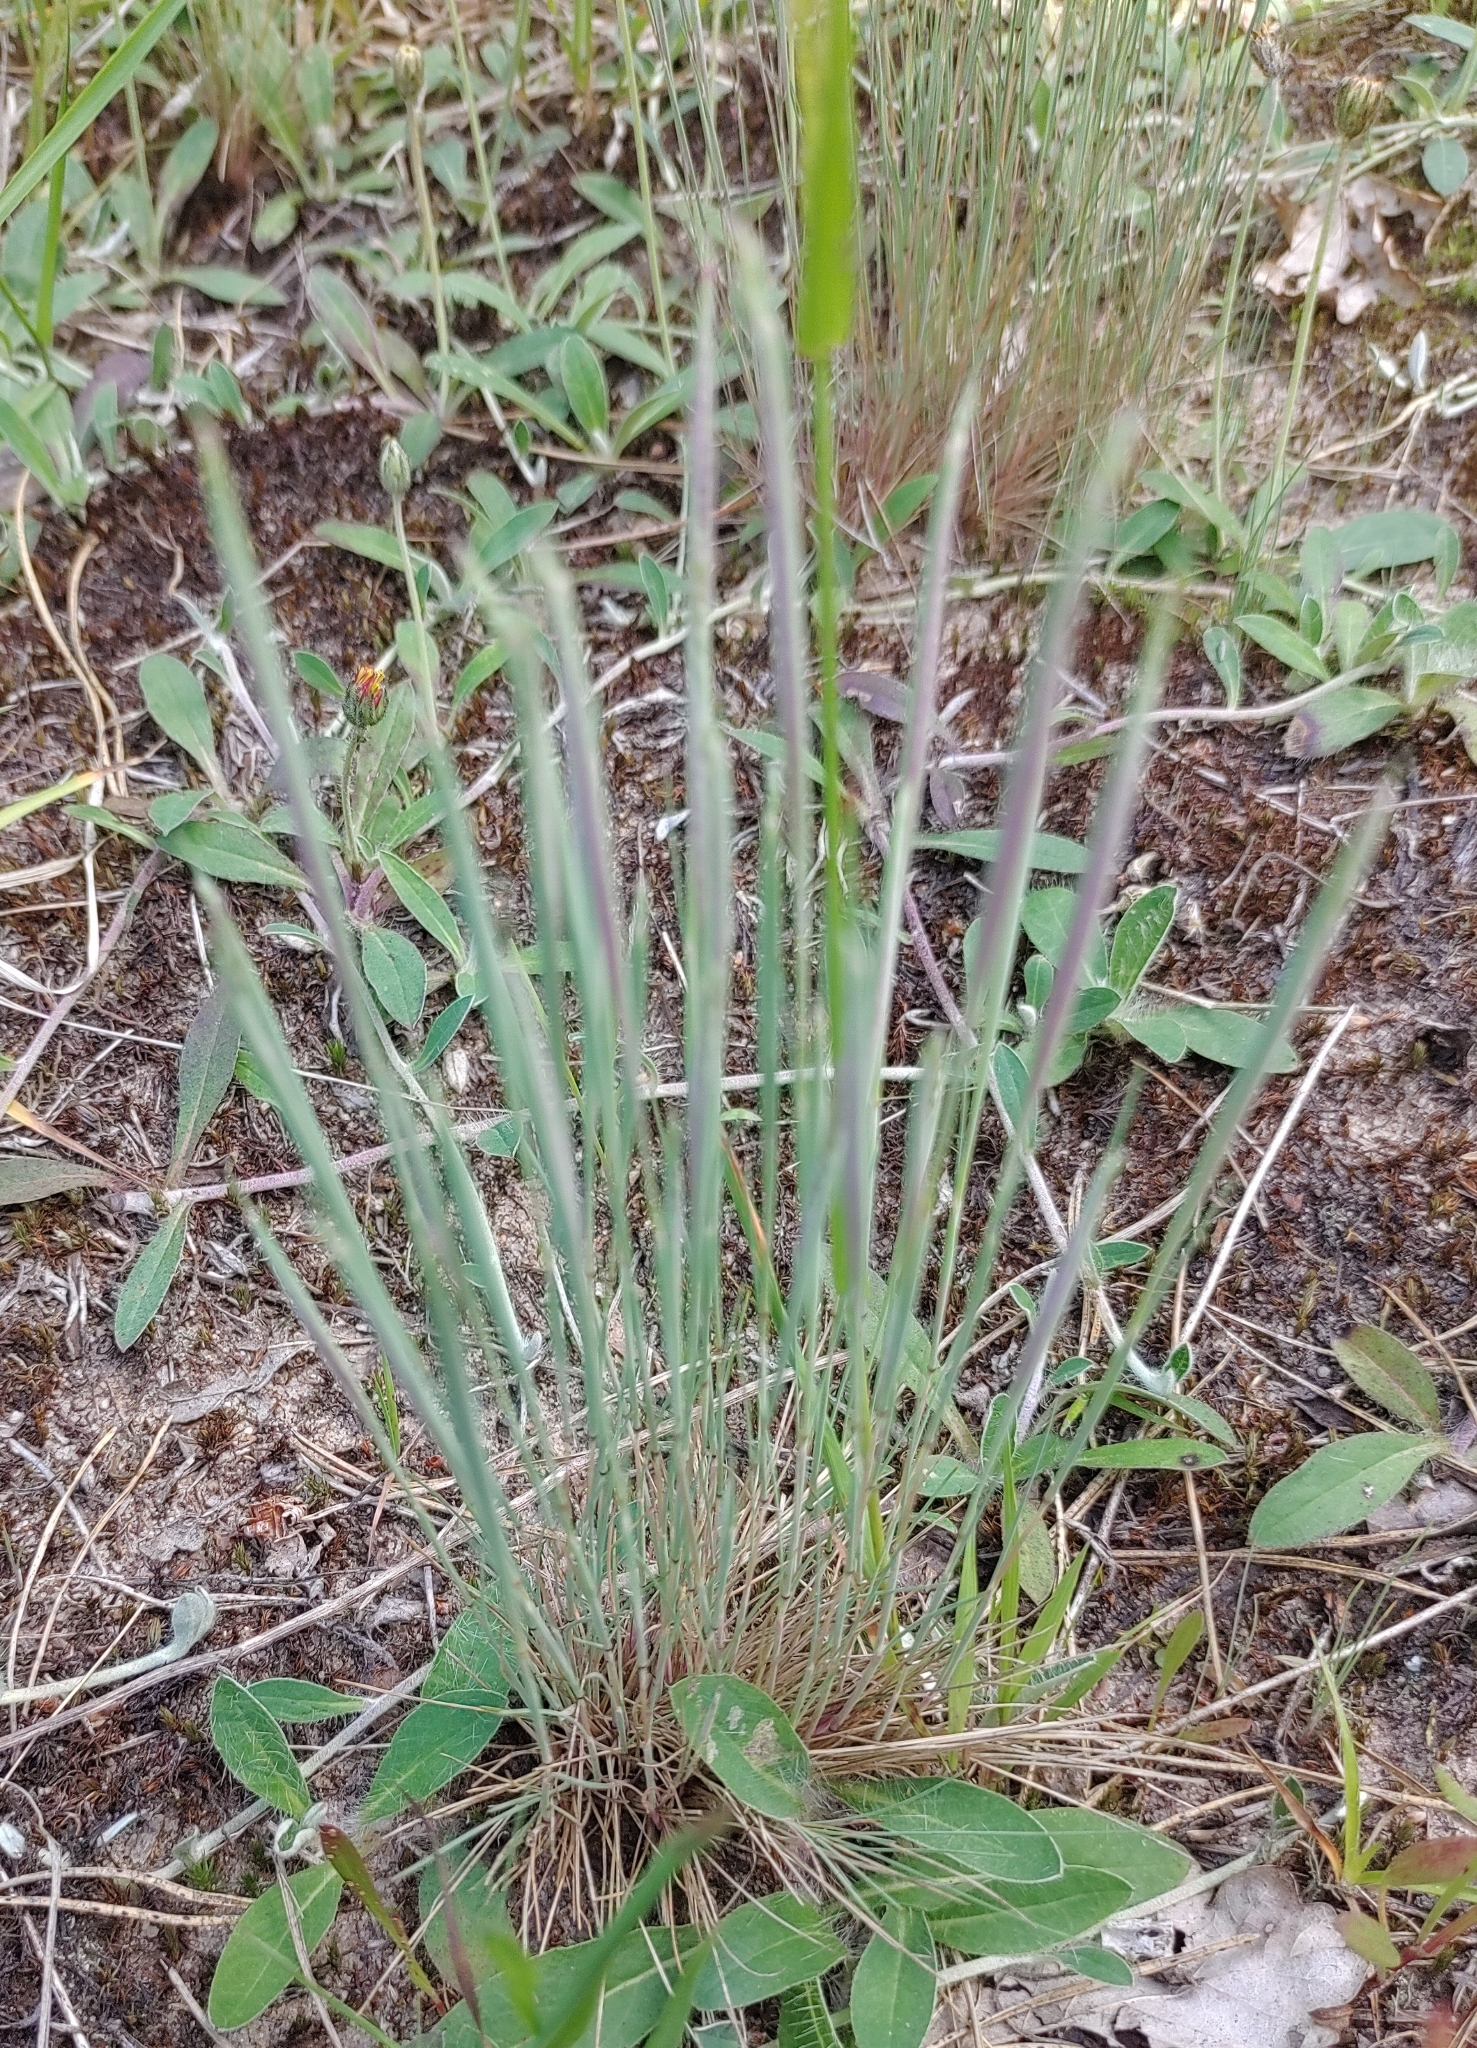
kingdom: Plantae
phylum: Tracheophyta
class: Liliopsida
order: Poales
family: Poaceae
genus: Corynephorus
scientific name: Corynephorus canescens
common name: Grey hair-grass
